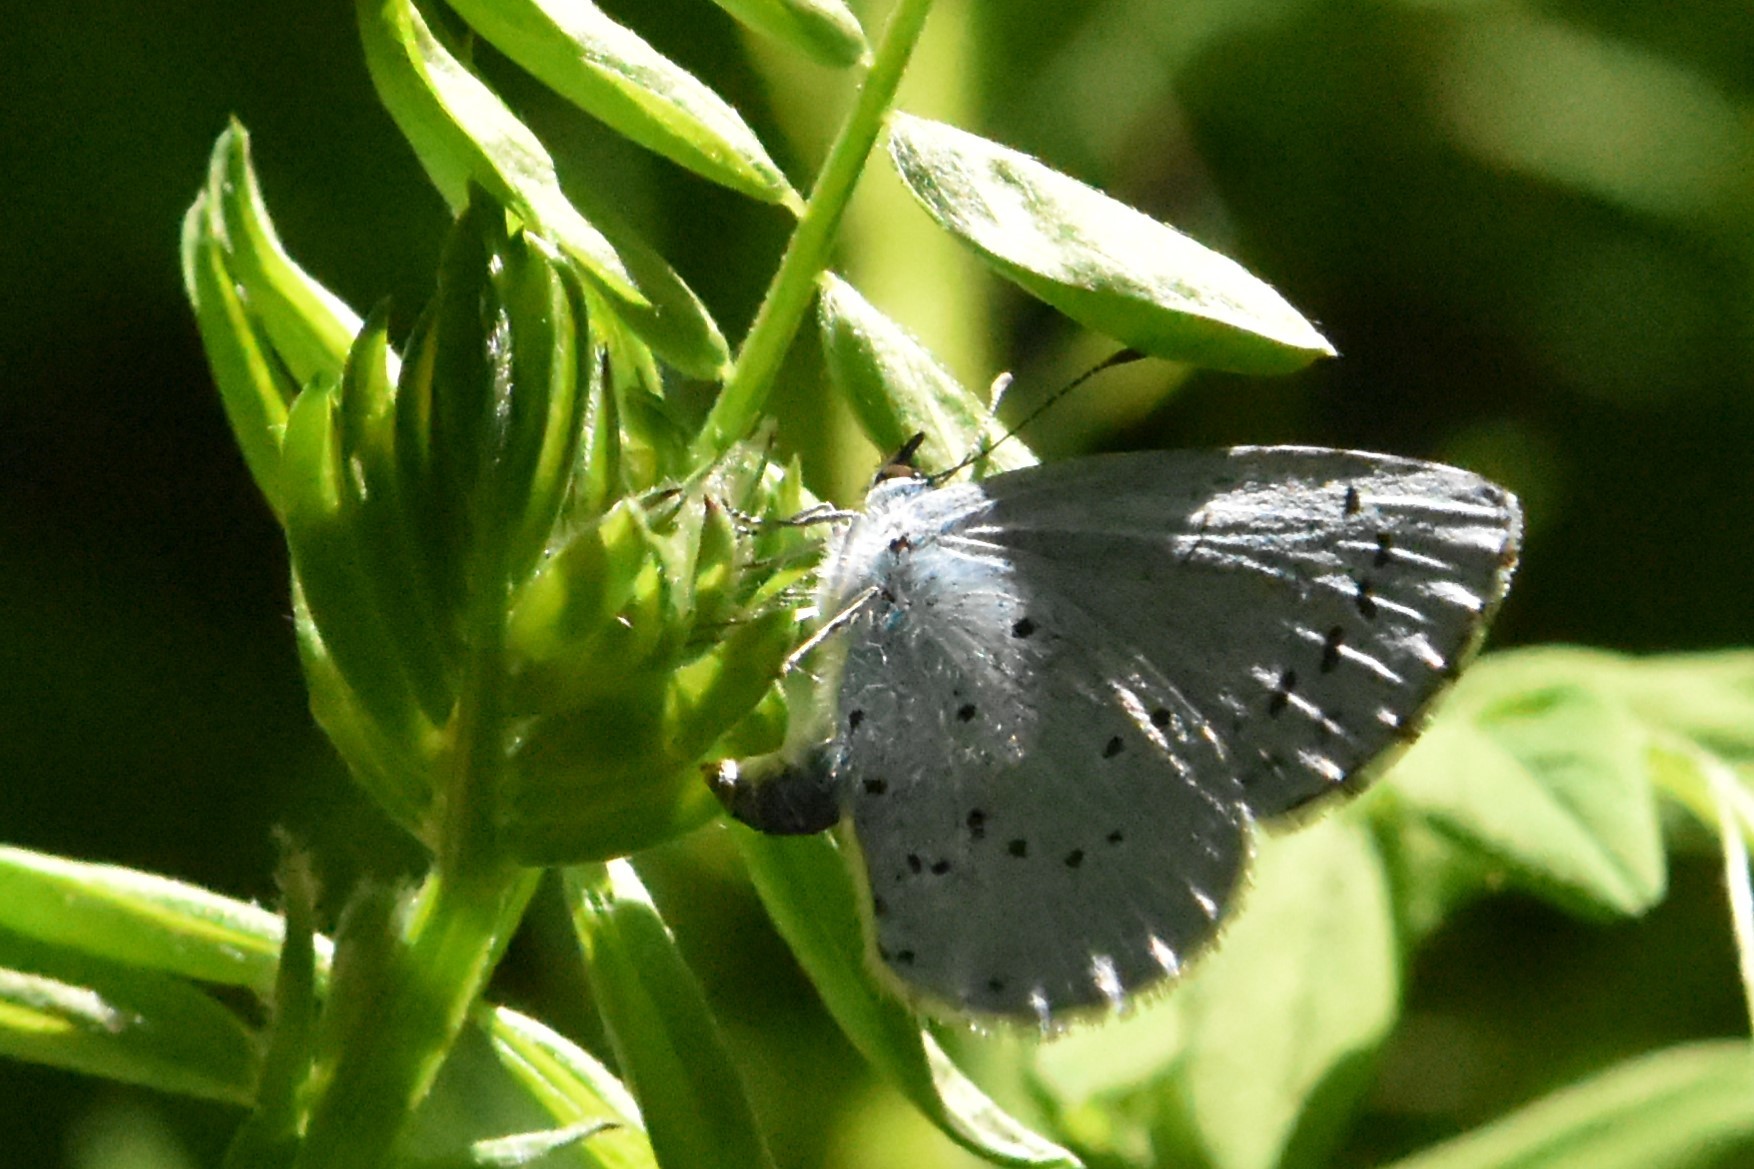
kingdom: Animalia
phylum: Arthropoda
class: Insecta
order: Lepidoptera
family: Lycaenidae
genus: Celastrina
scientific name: Celastrina argiolus
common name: Holly blue
